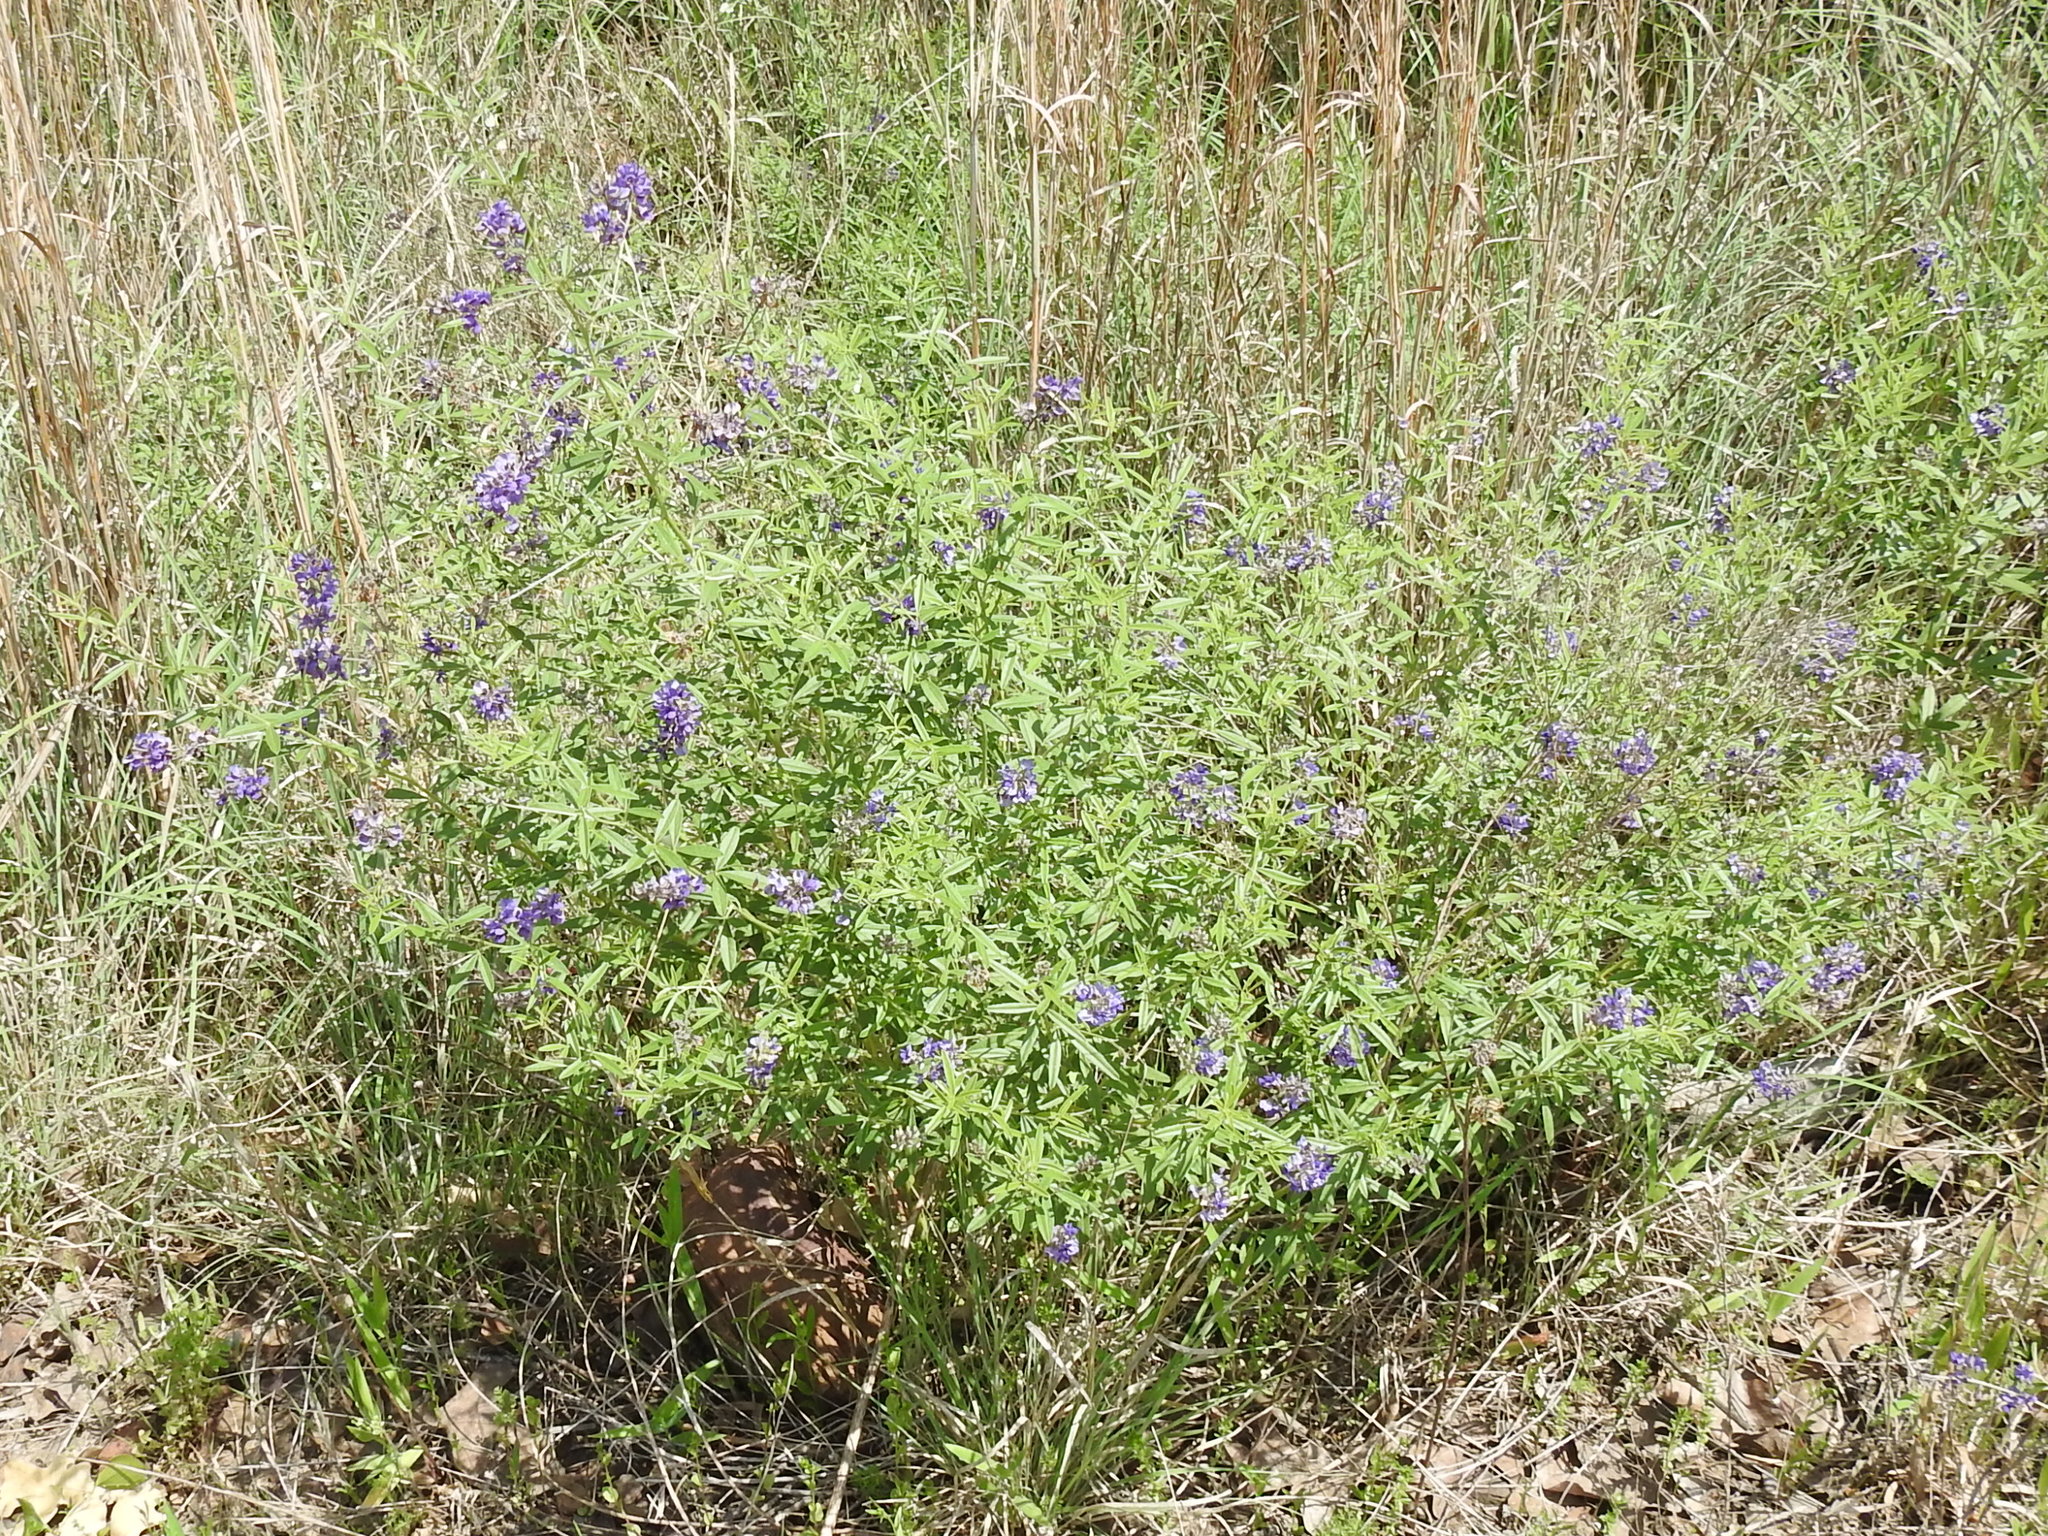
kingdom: Plantae
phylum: Tracheophyta
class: Magnoliopsida
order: Fabales
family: Fabaceae
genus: Pediomelum
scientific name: Pediomelum tenuiflorum
